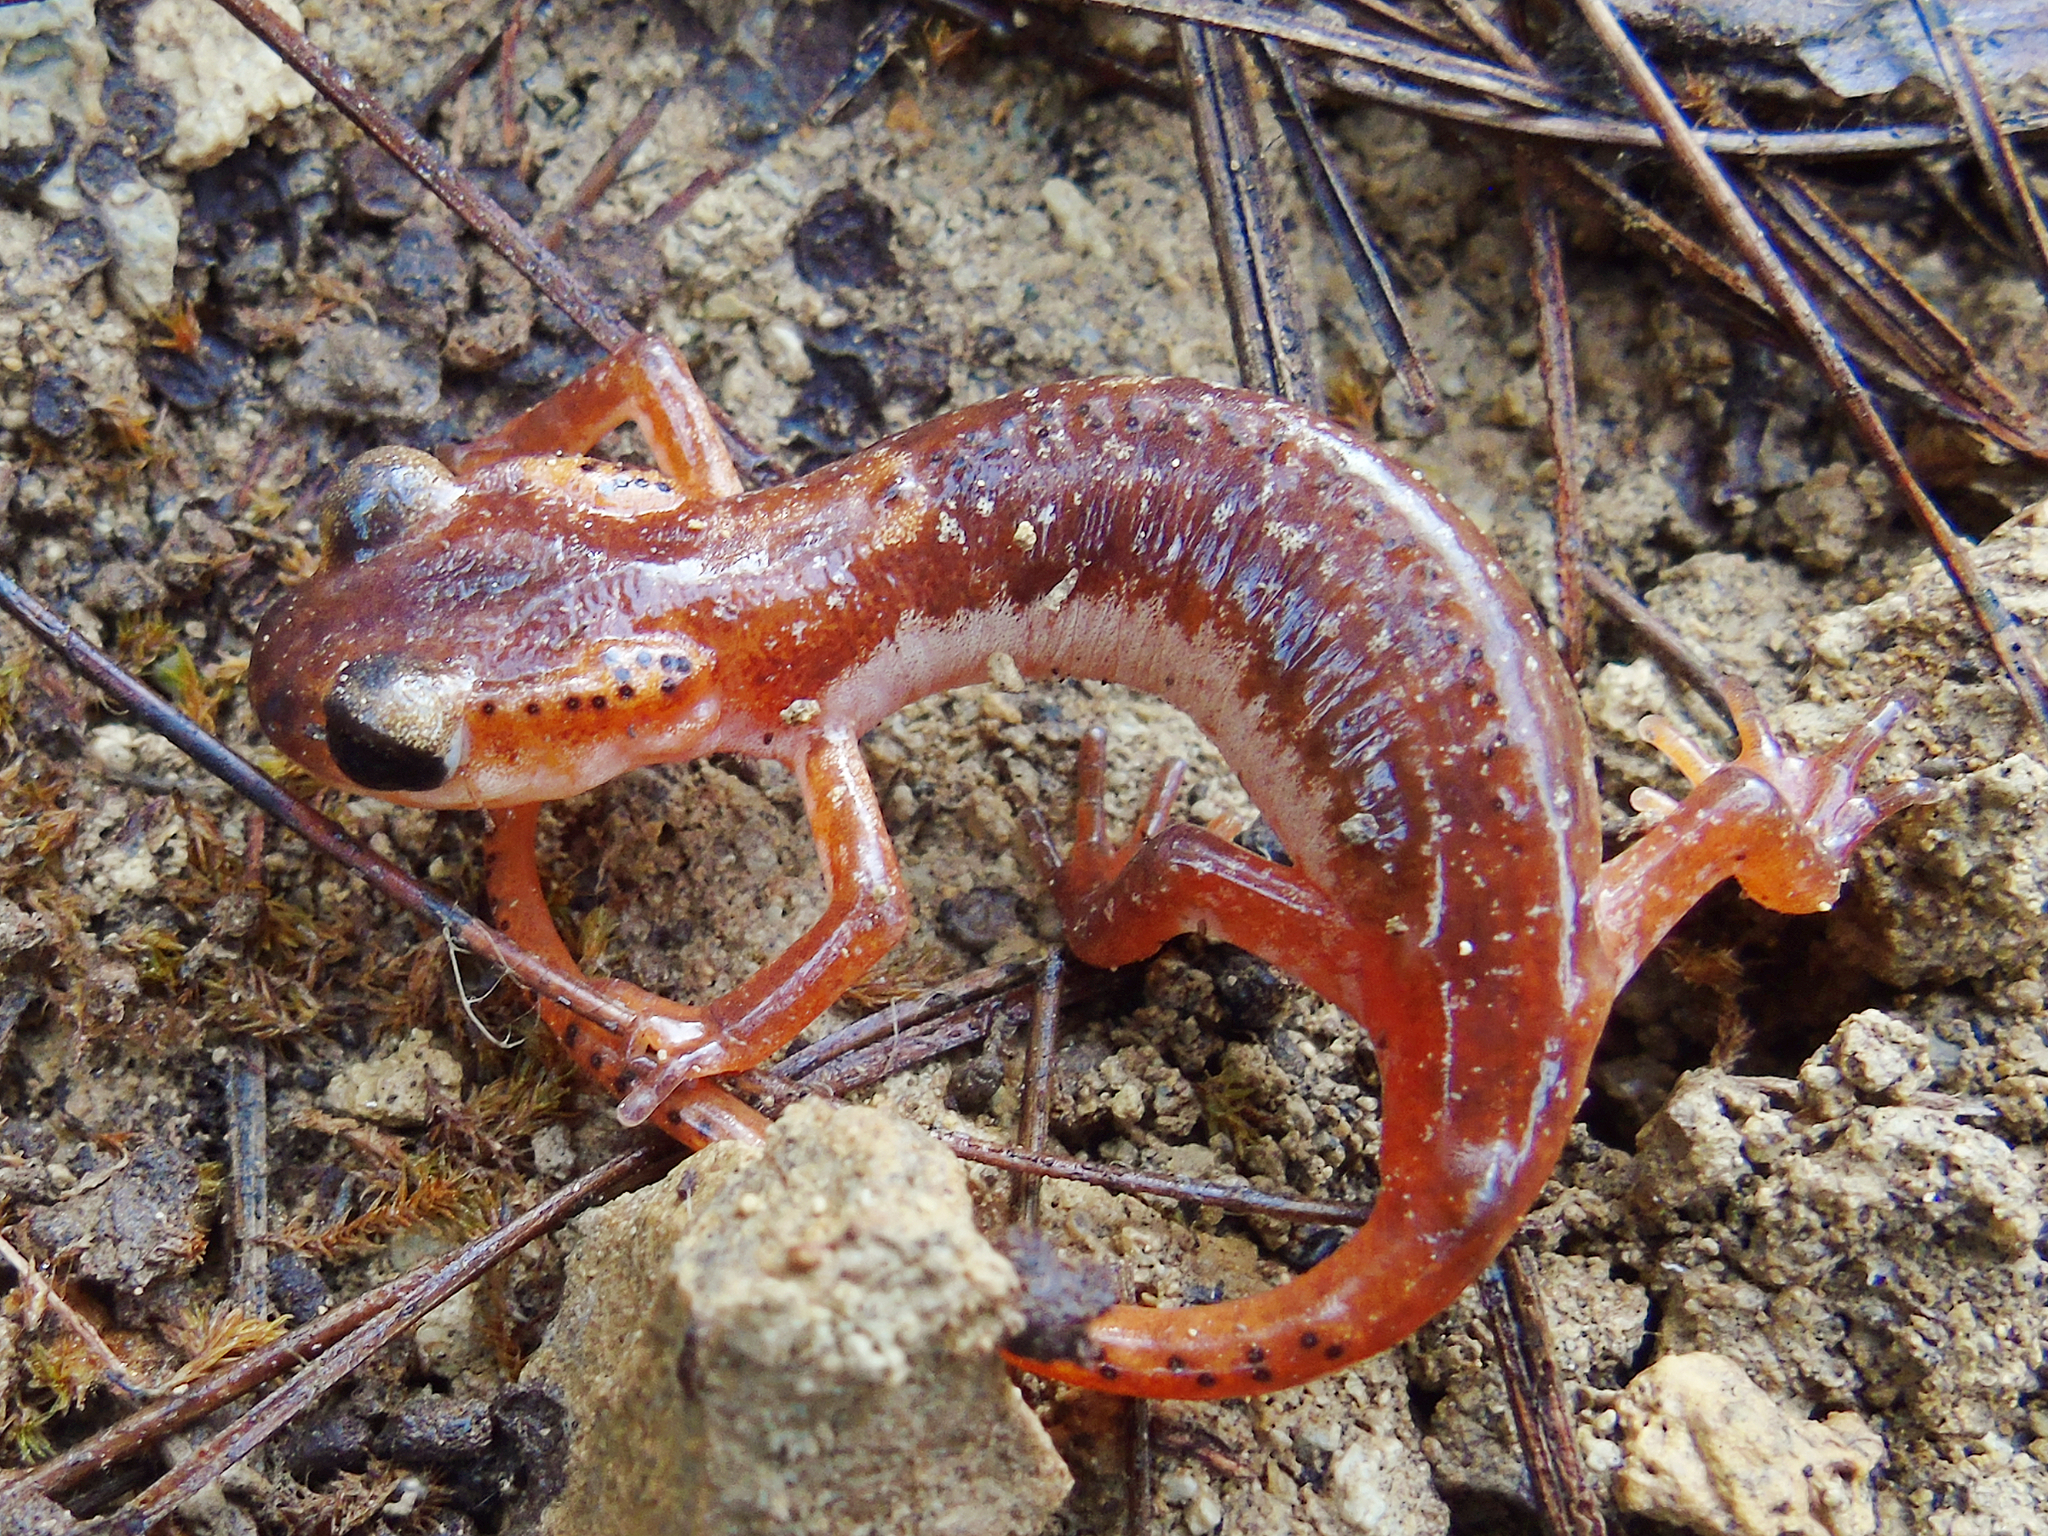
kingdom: Animalia
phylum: Chordata
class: Amphibia
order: Caudata
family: Salamandridae
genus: Lyciasalamandra
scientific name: Lyciasalamandra billae
